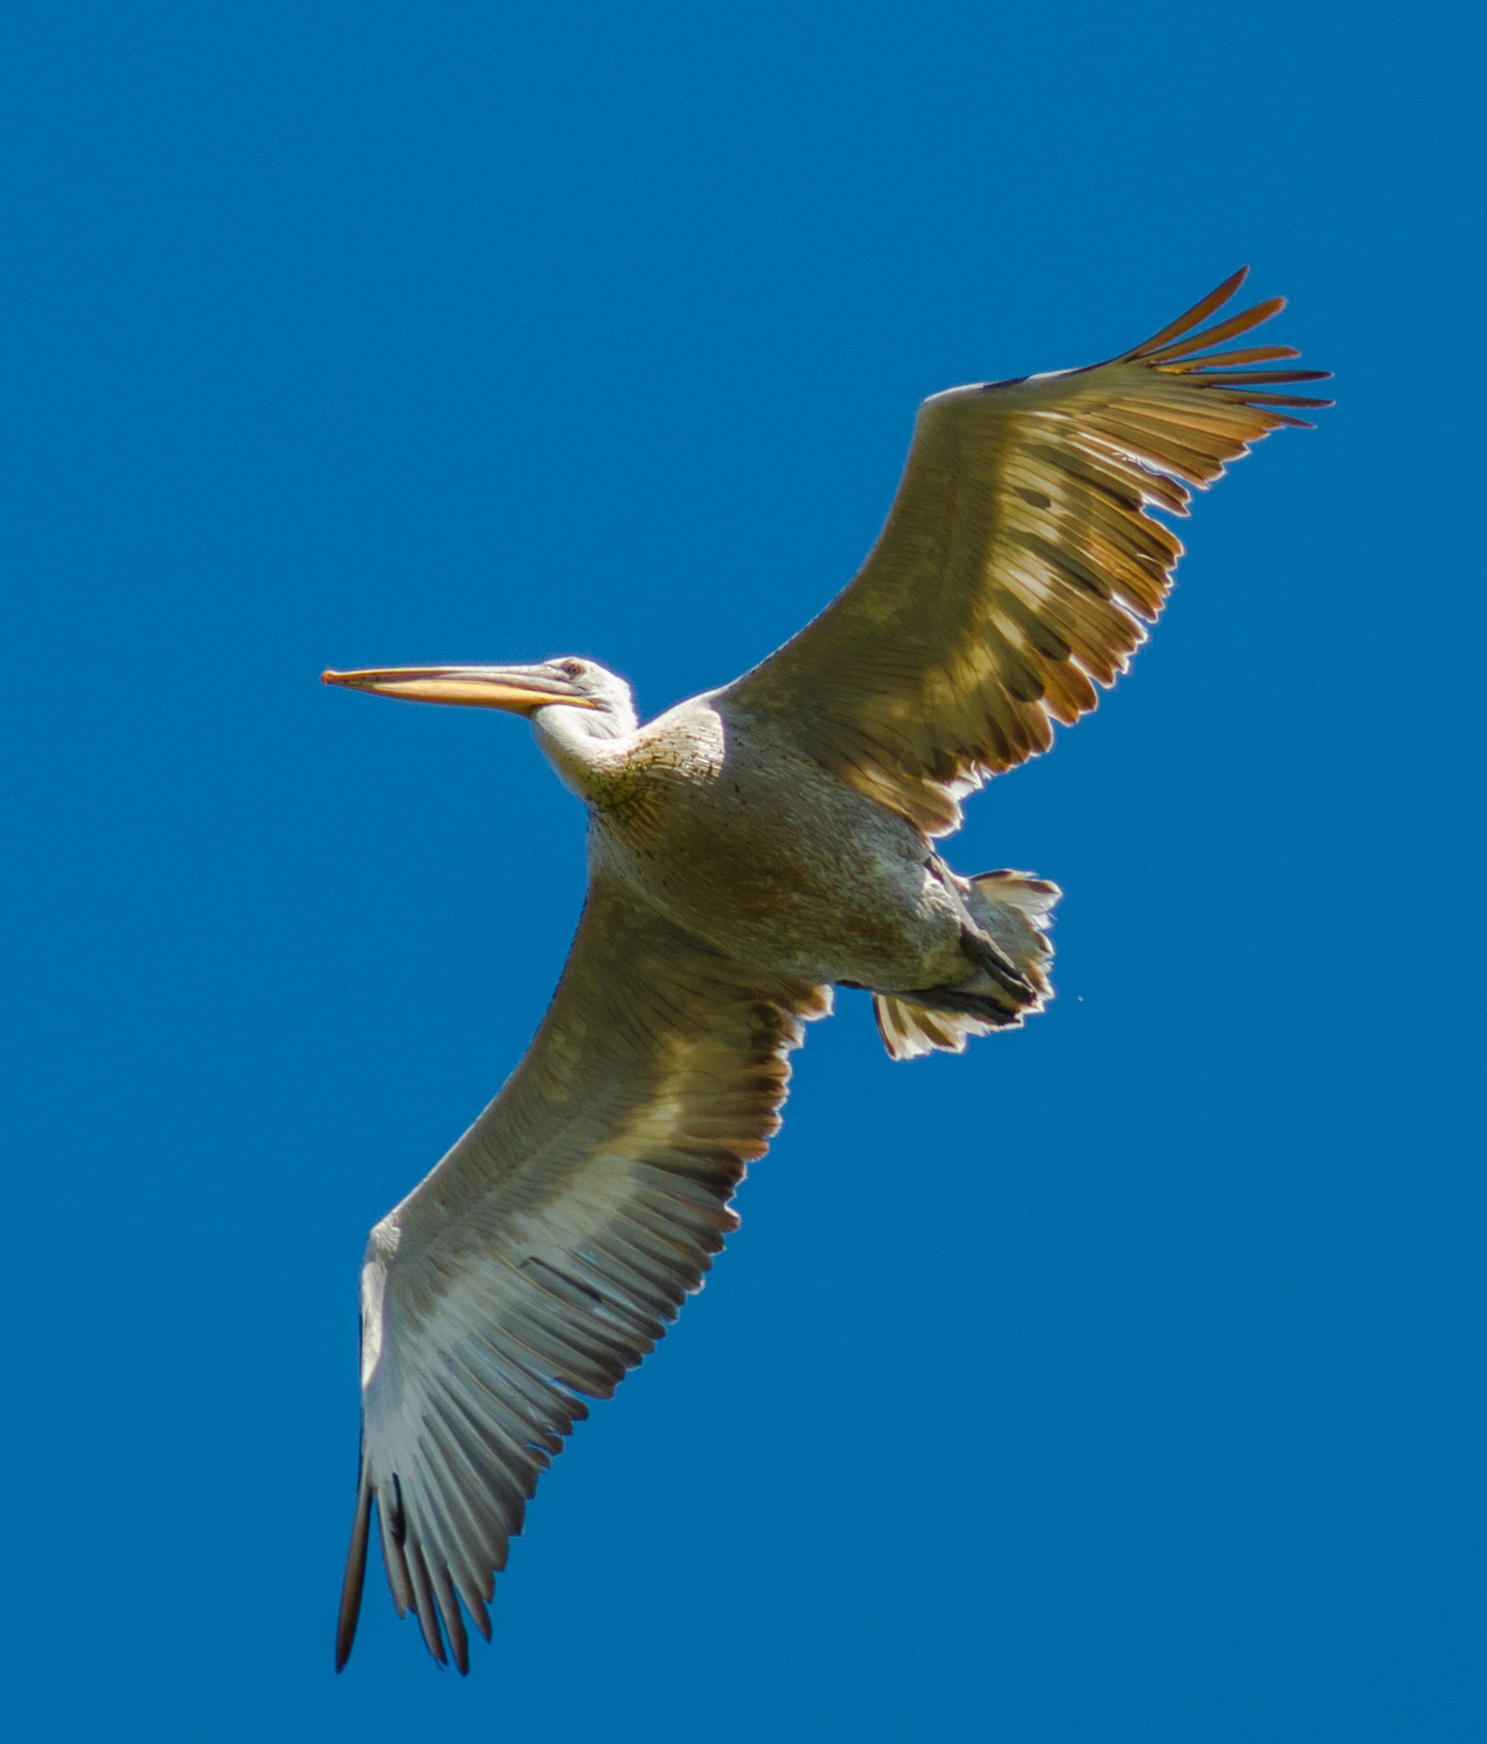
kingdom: Animalia
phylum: Chordata
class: Aves
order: Pelecaniformes
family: Pelecanidae
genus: Pelecanus
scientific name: Pelecanus crispus
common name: Dalmatian pelican
